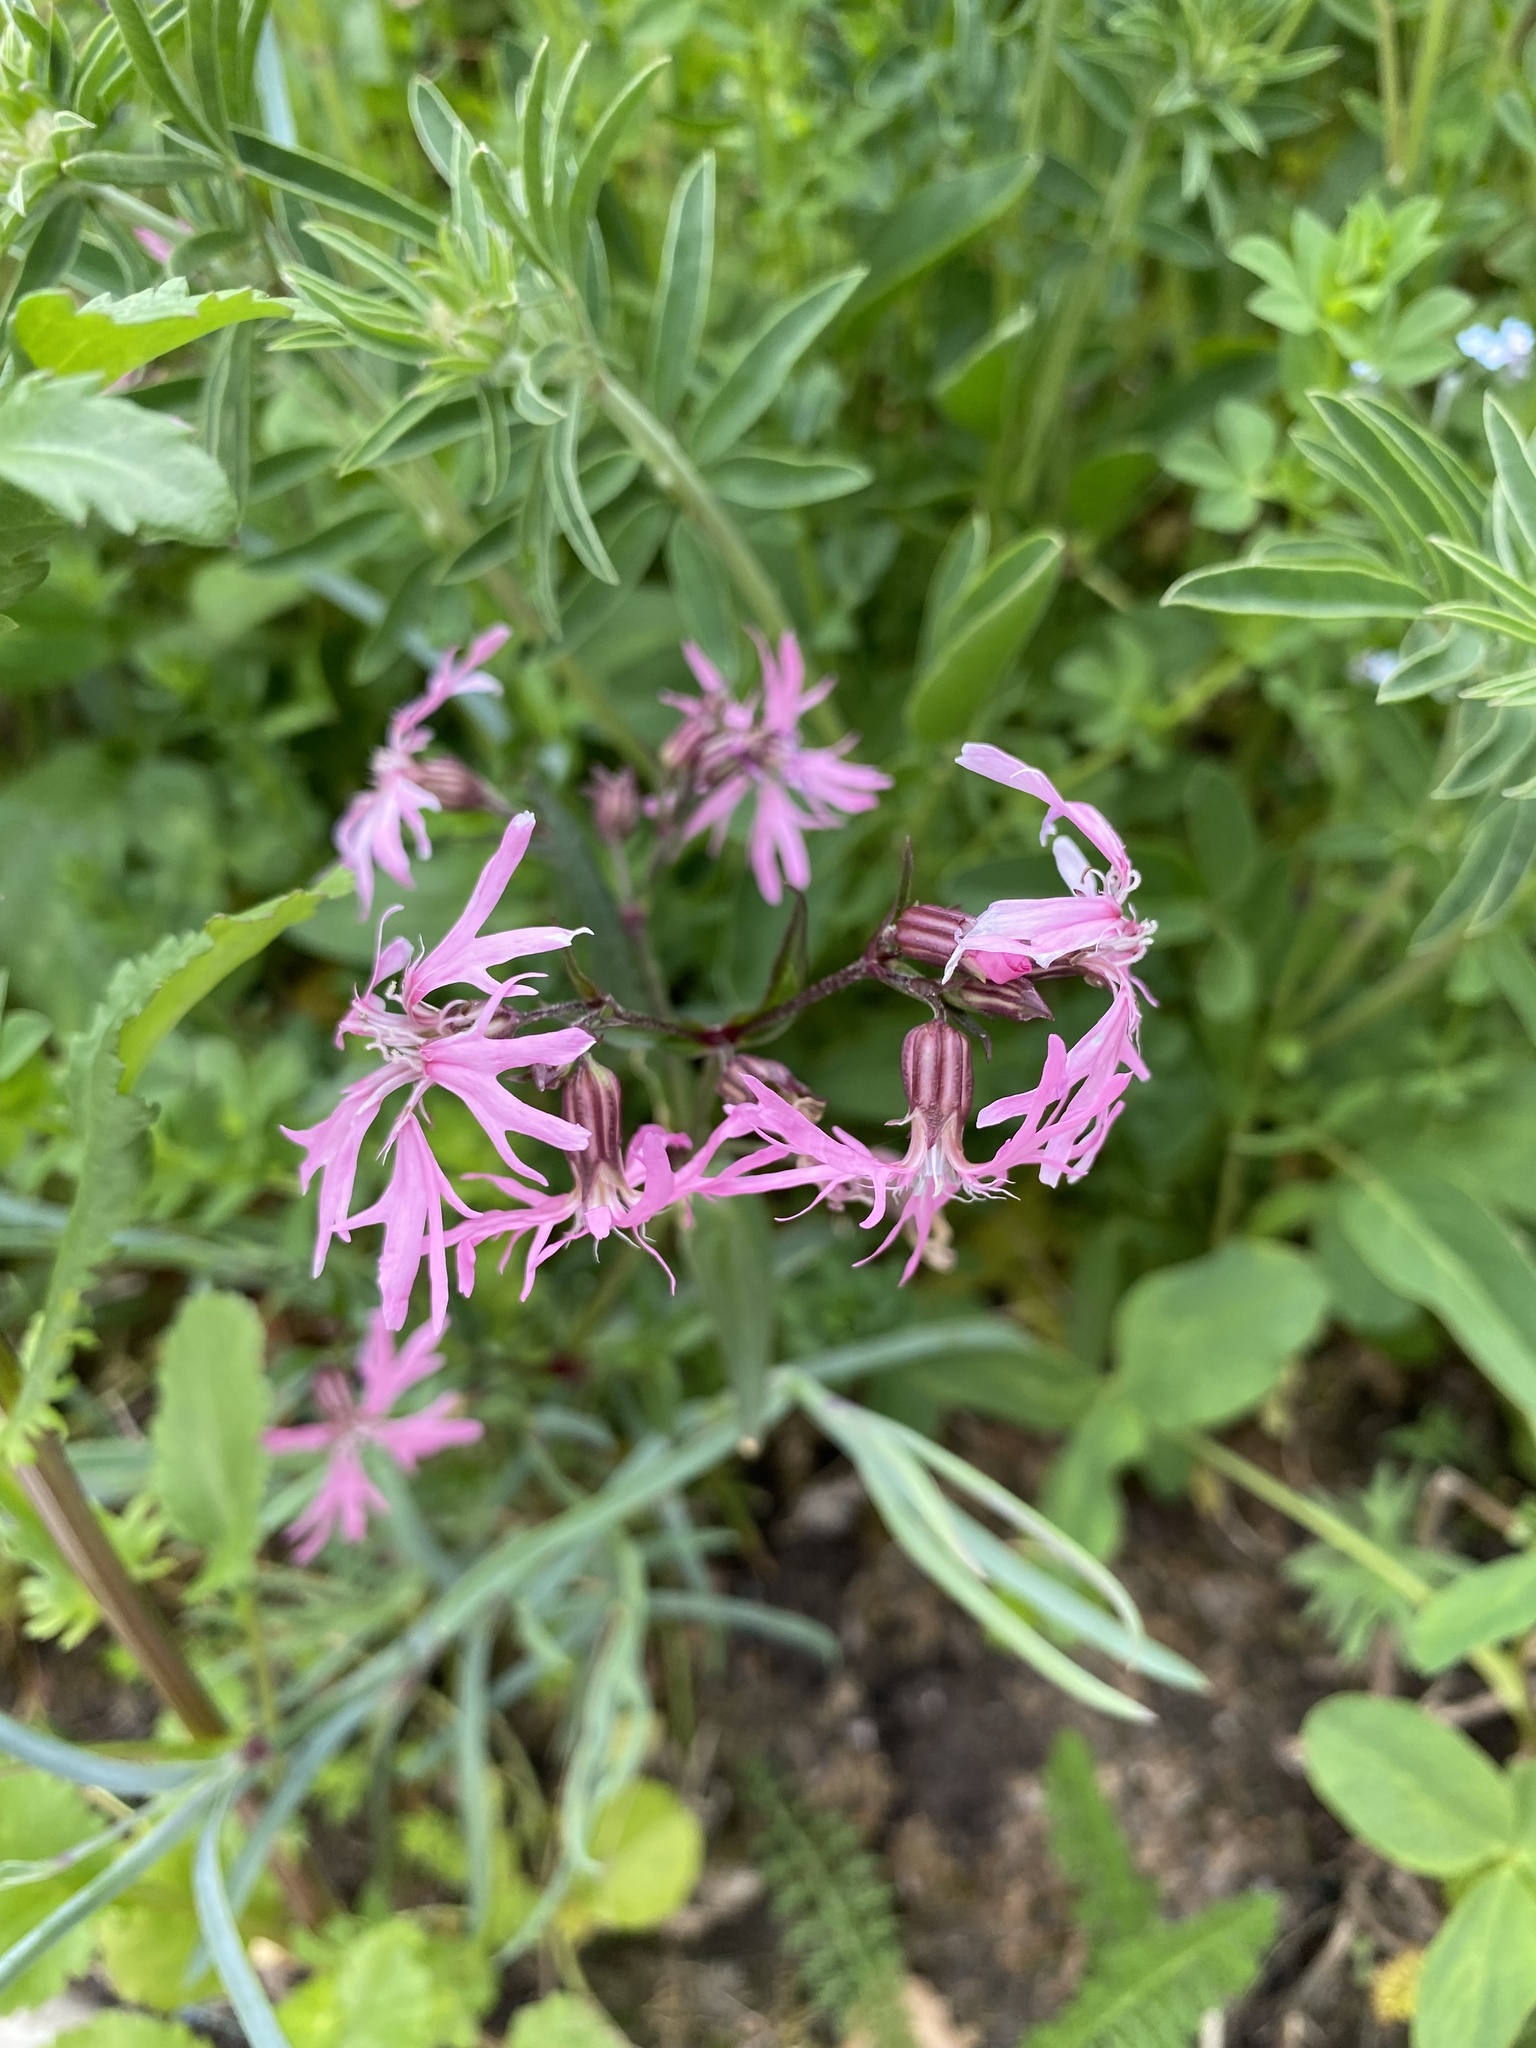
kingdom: Plantae
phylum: Tracheophyta
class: Magnoliopsida
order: Caryophyllales
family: Caryophyllaceae
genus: Silene
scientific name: Silene flos-cuculi
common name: Ragged-robin
